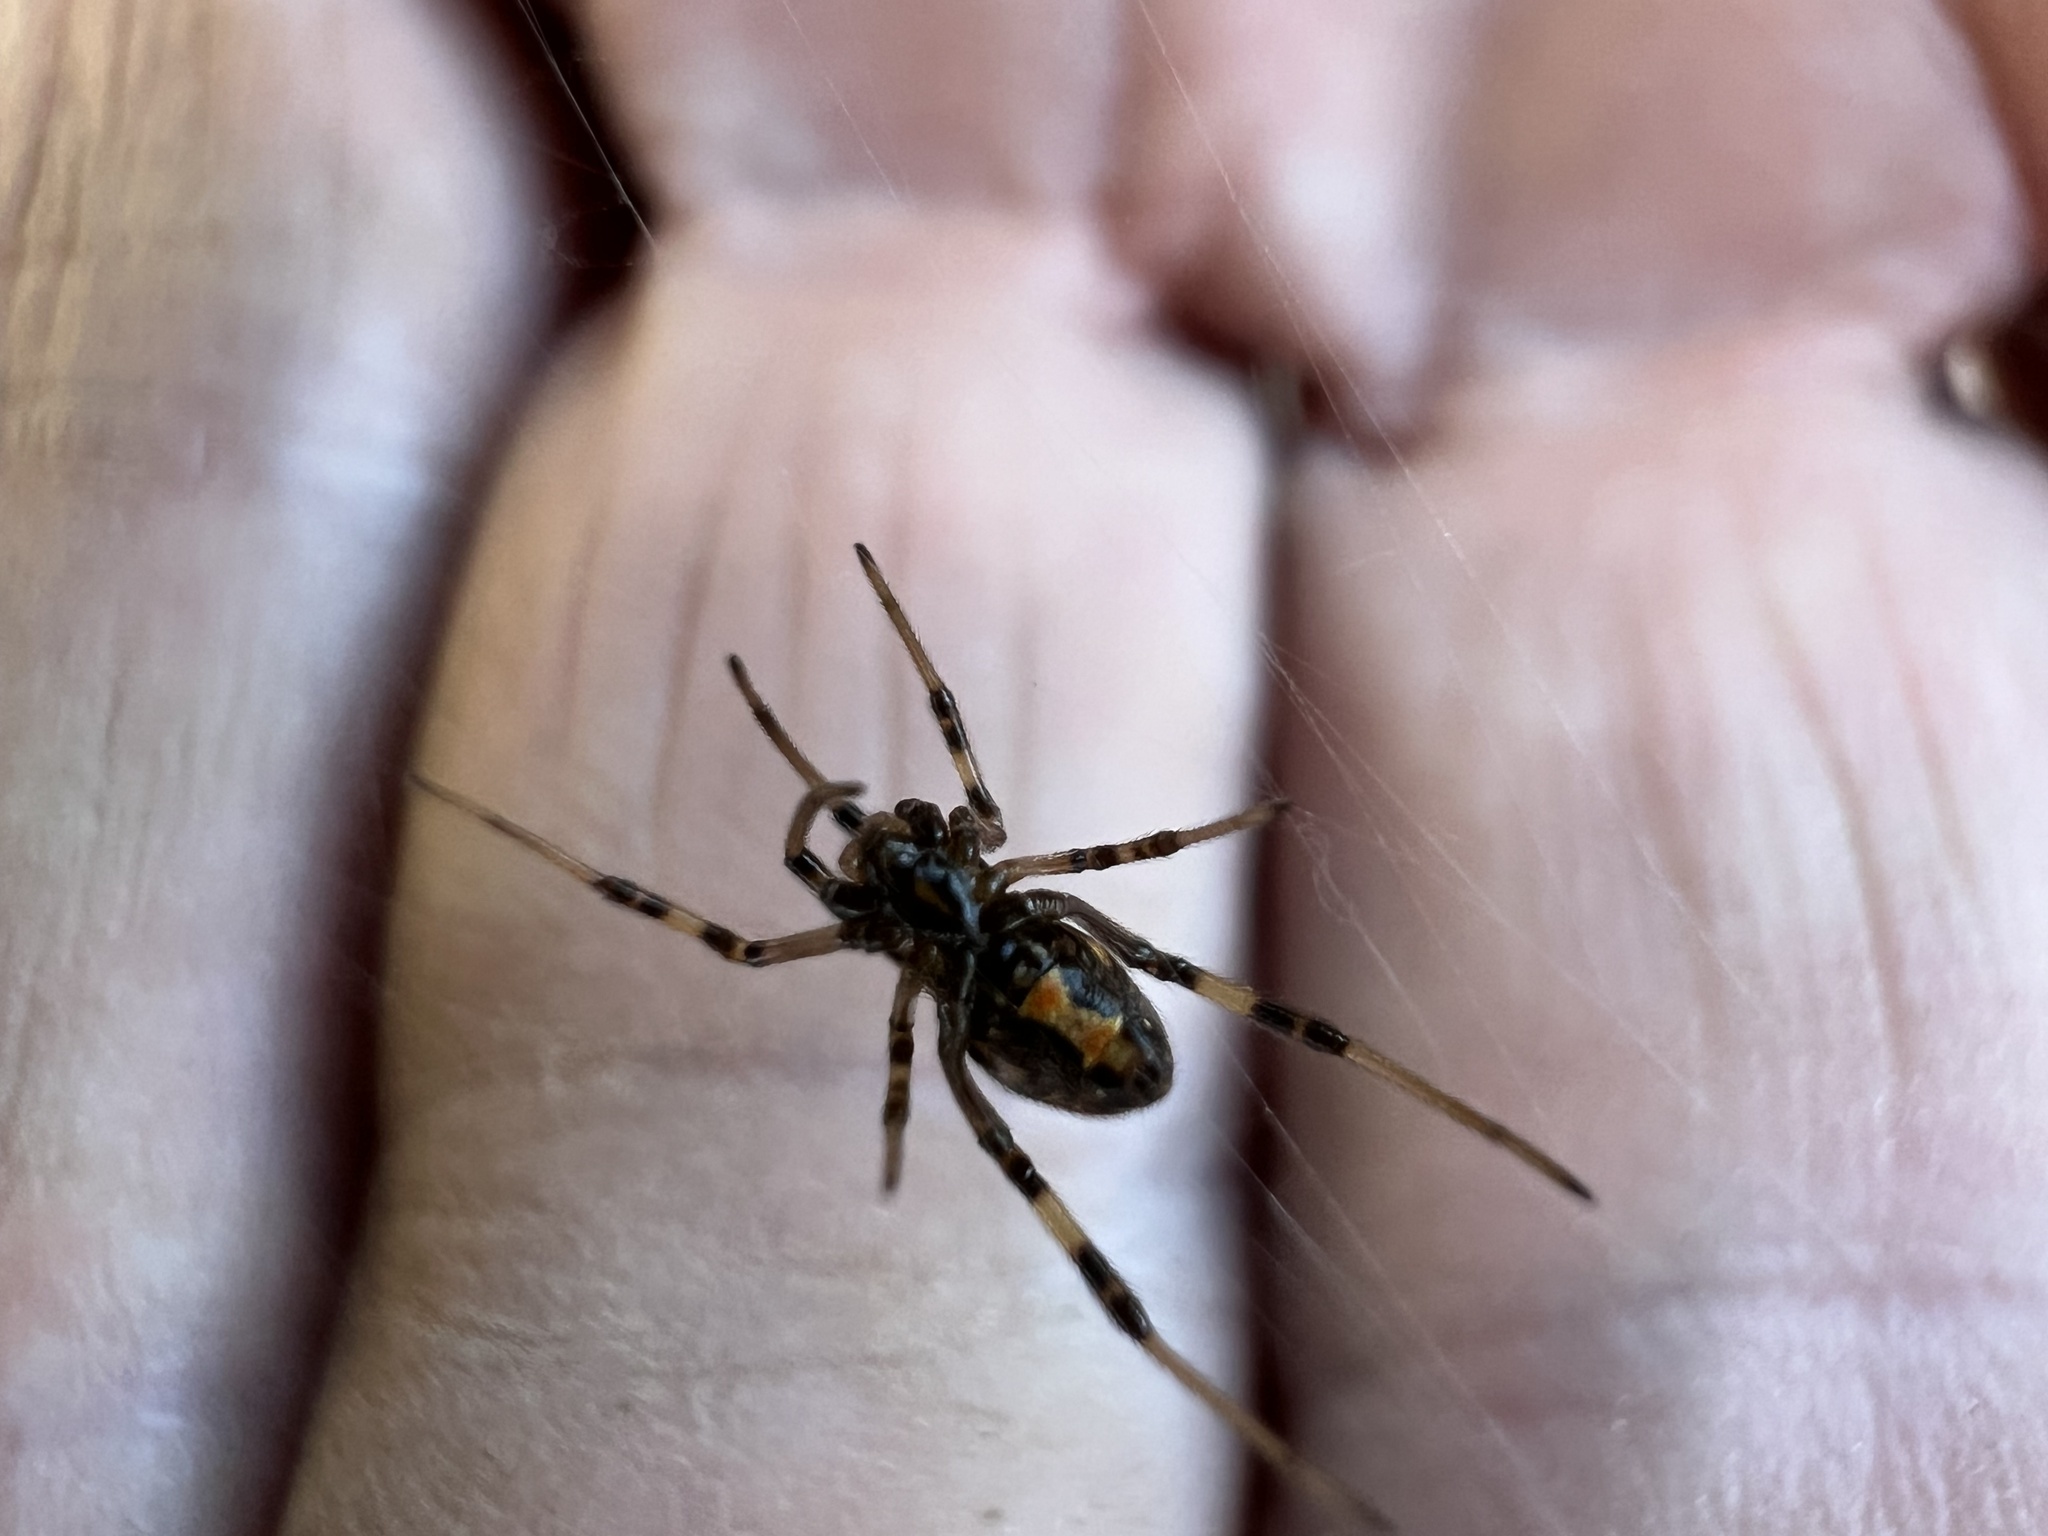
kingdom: Animalia
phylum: Arthropoda
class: Arachnida
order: Araneae
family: Theridiidae
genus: Latrodectus
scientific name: Latrodectus hesperus
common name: Western black widow
